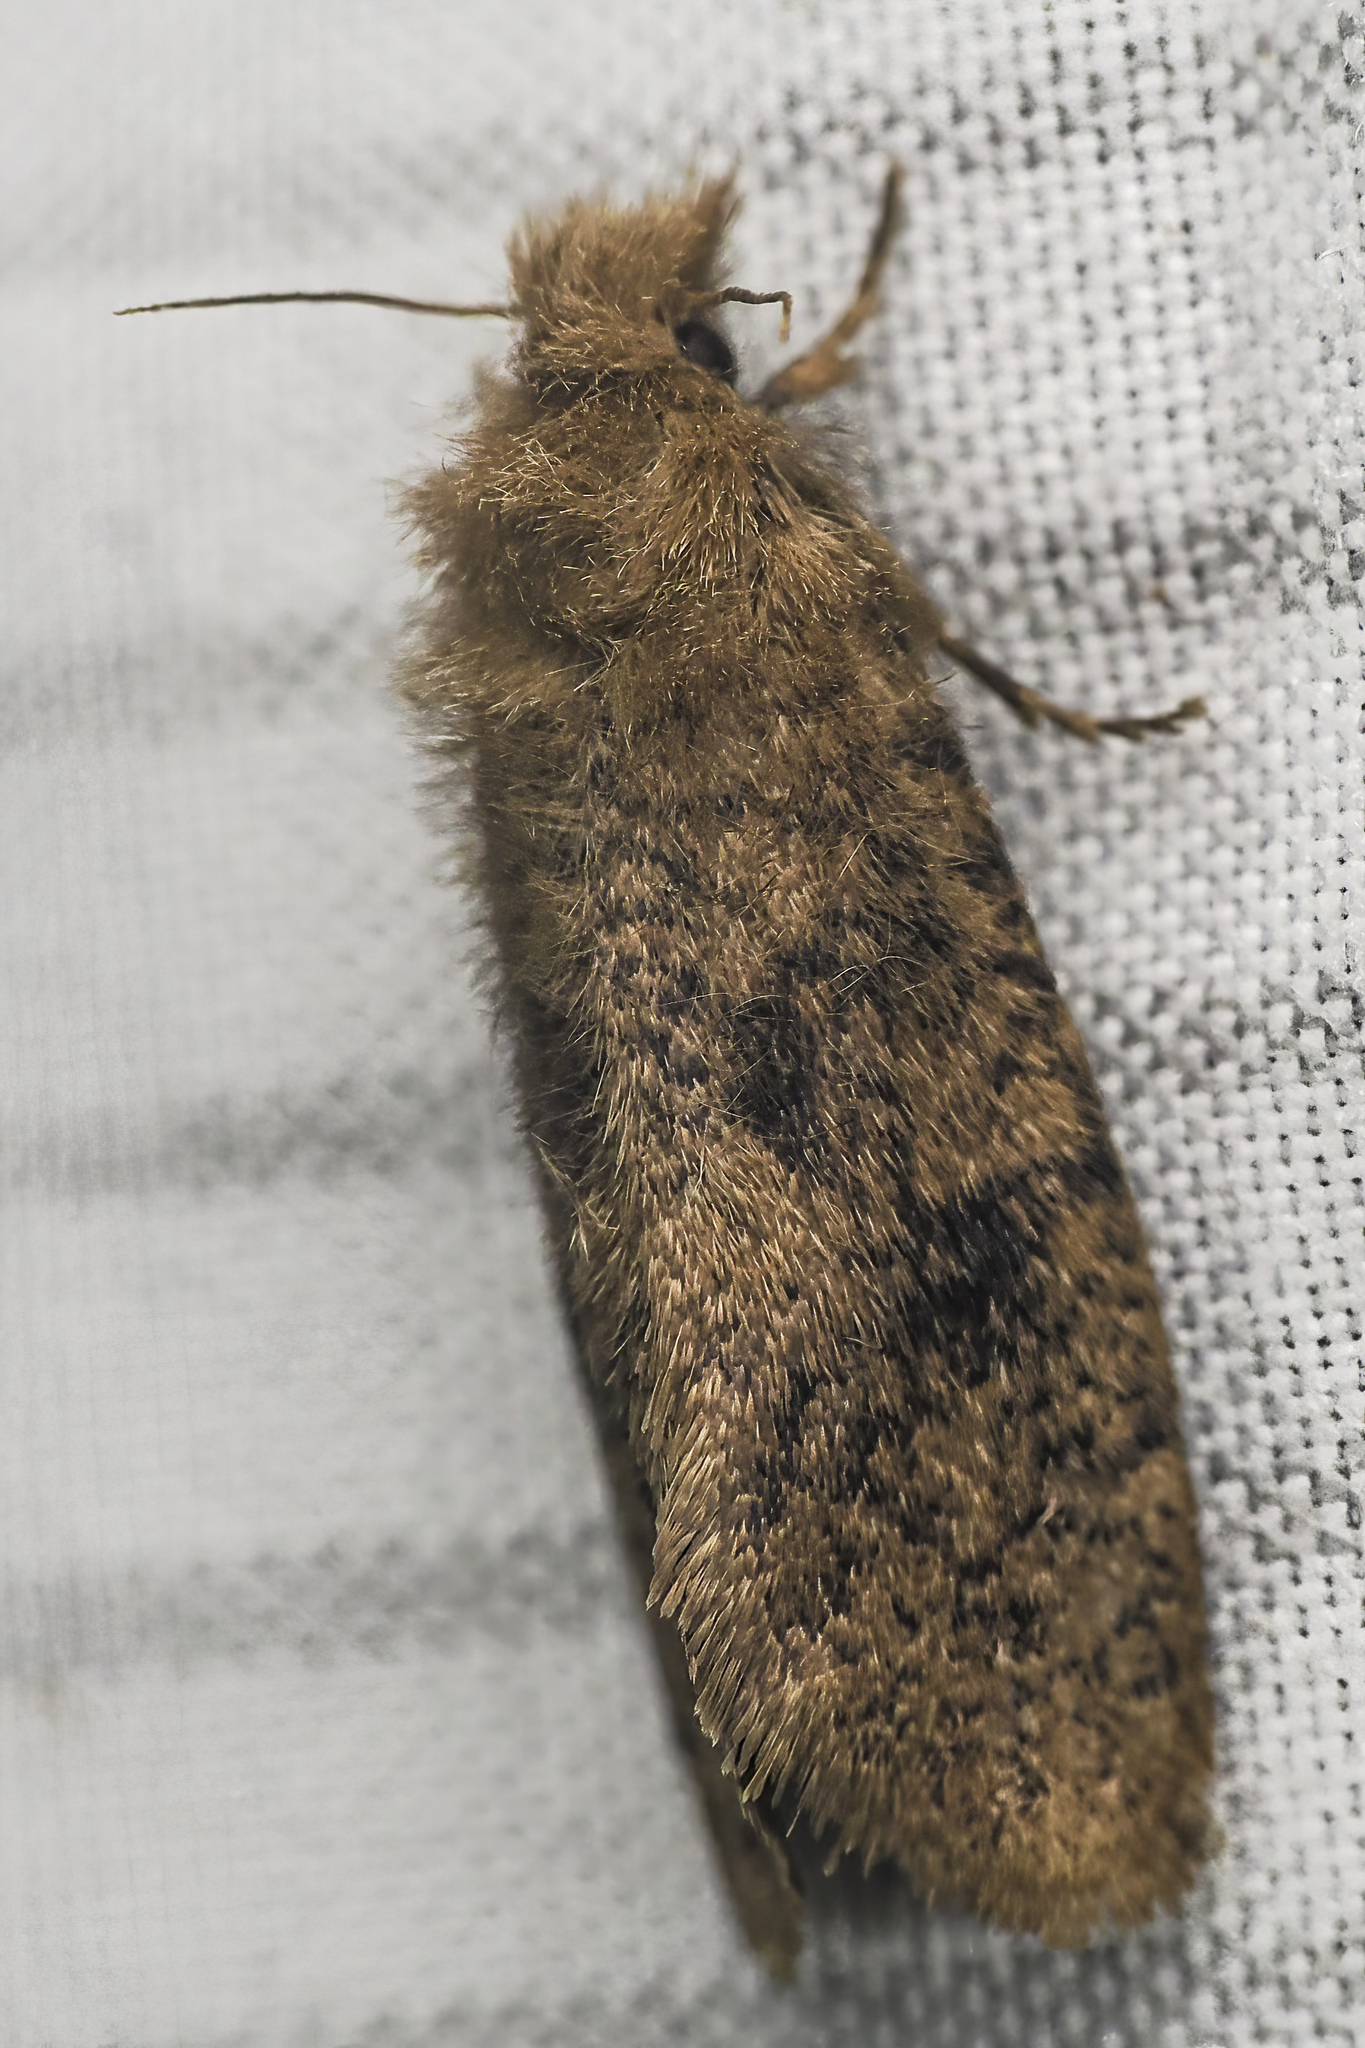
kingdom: Animalia
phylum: Arthropoda
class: Insecta
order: Lepidoptera
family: Tineidae
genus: Acrolophus
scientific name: Acrolophus propinqua
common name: Walsingham's grass tubeworm moth
